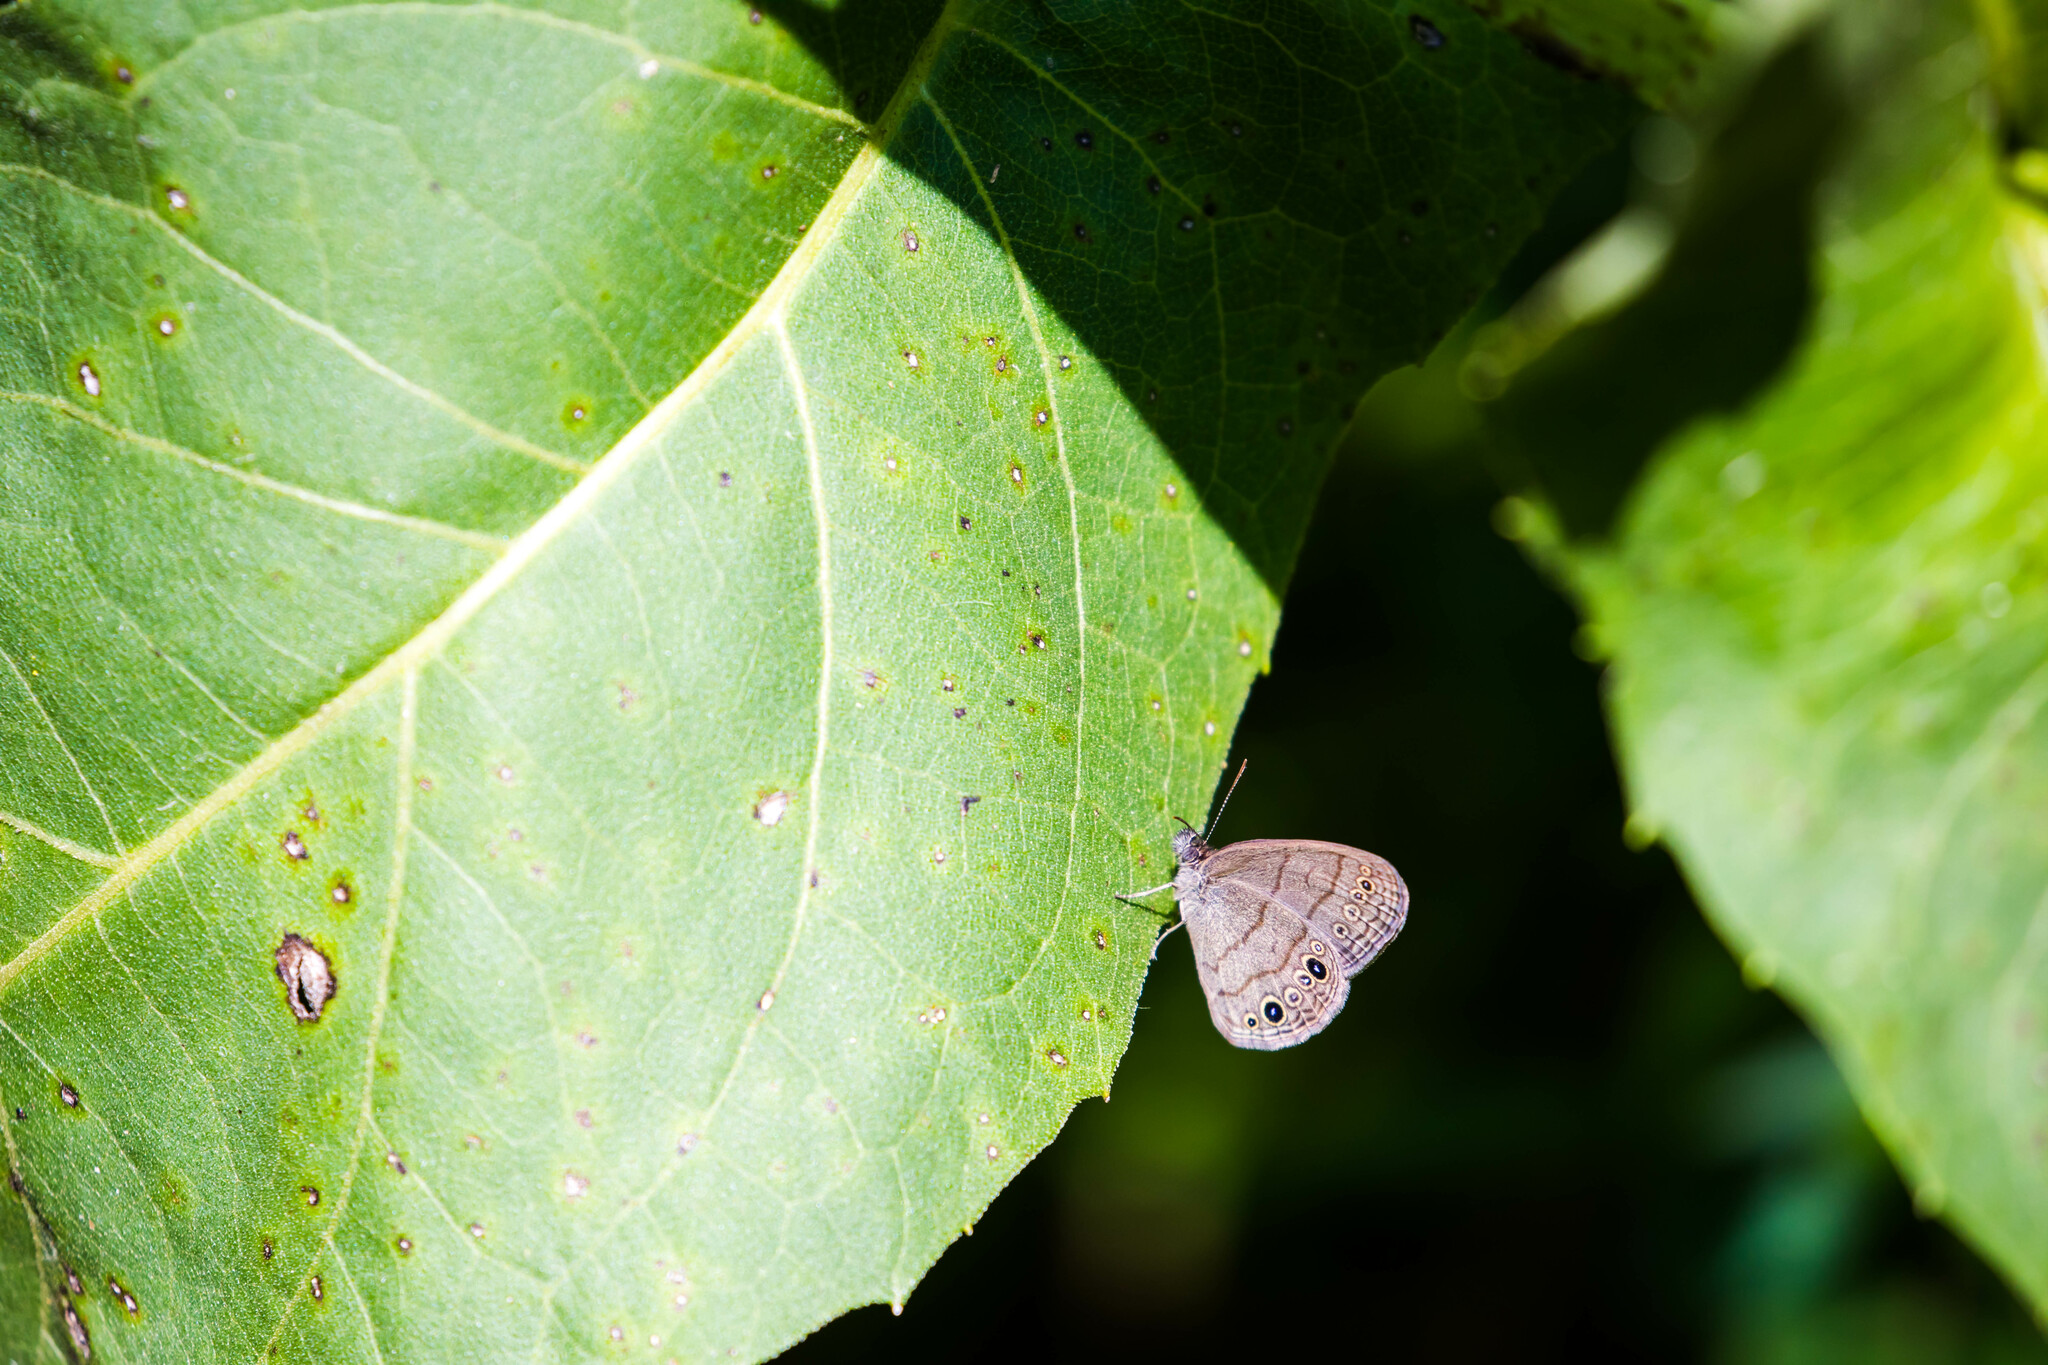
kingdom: Animalia
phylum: Arthropoda
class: Insecta
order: Lepidoptera
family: Nymphalidae
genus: Hermeuptychia
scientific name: Hermeuptychia hermes
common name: Hermes satyr
